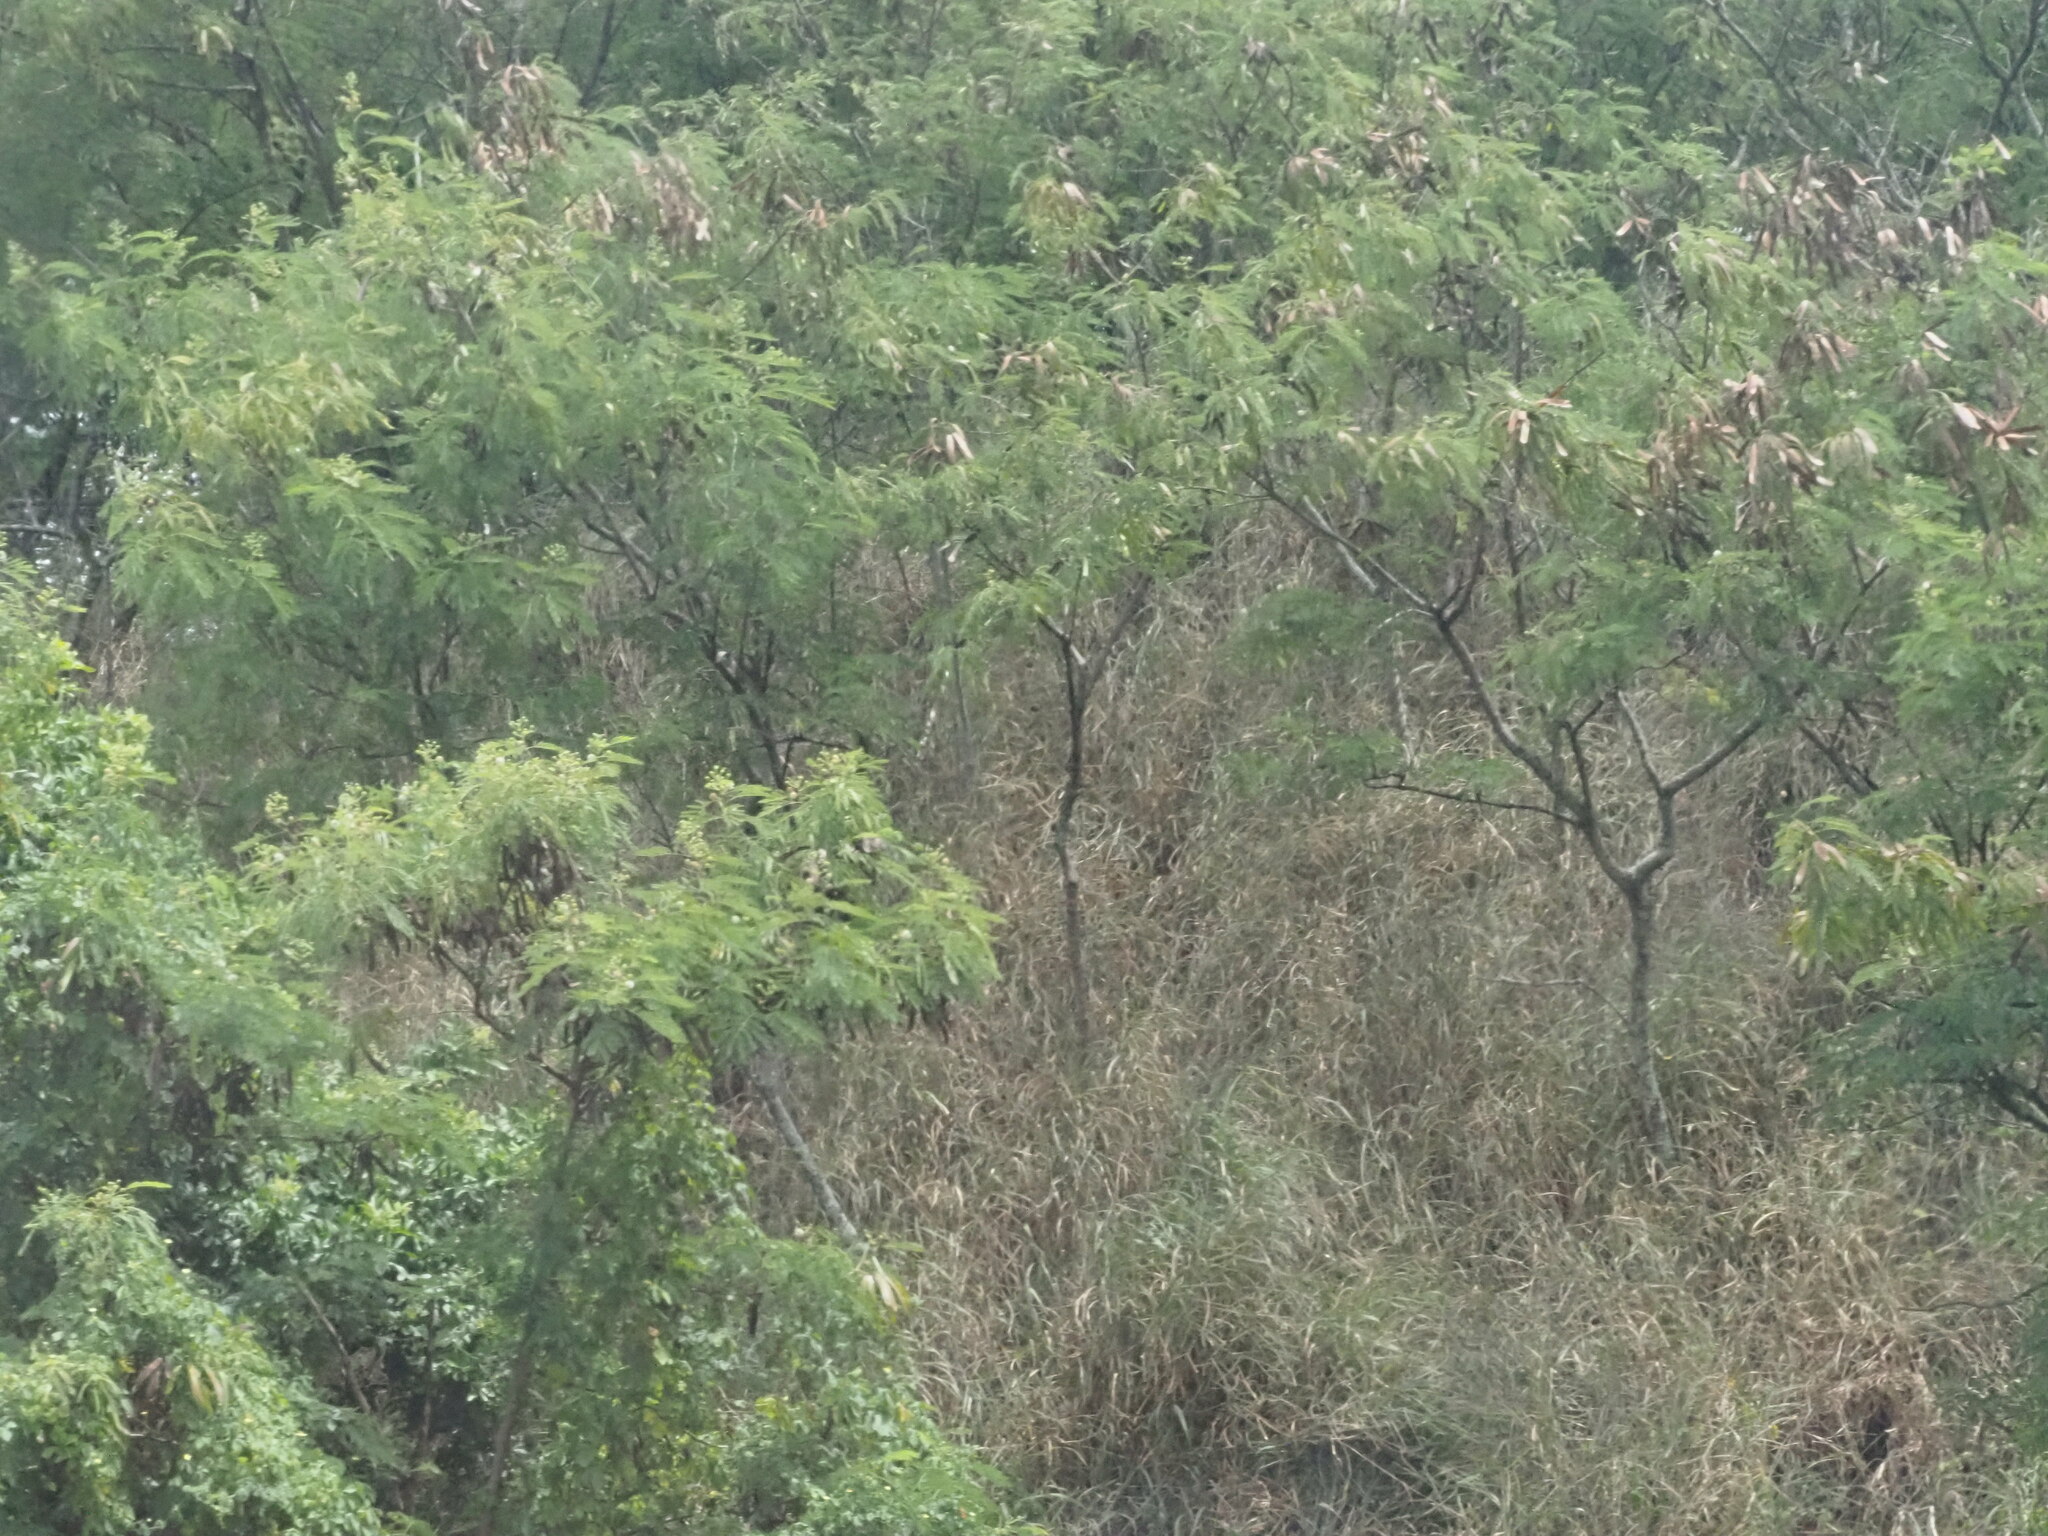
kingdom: Plantae
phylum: Tracheophyta
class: Magnoliopsida
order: Fabales
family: Fabaceae
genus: Leucaena
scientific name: Leucaena leucocephala
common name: White leadtree
